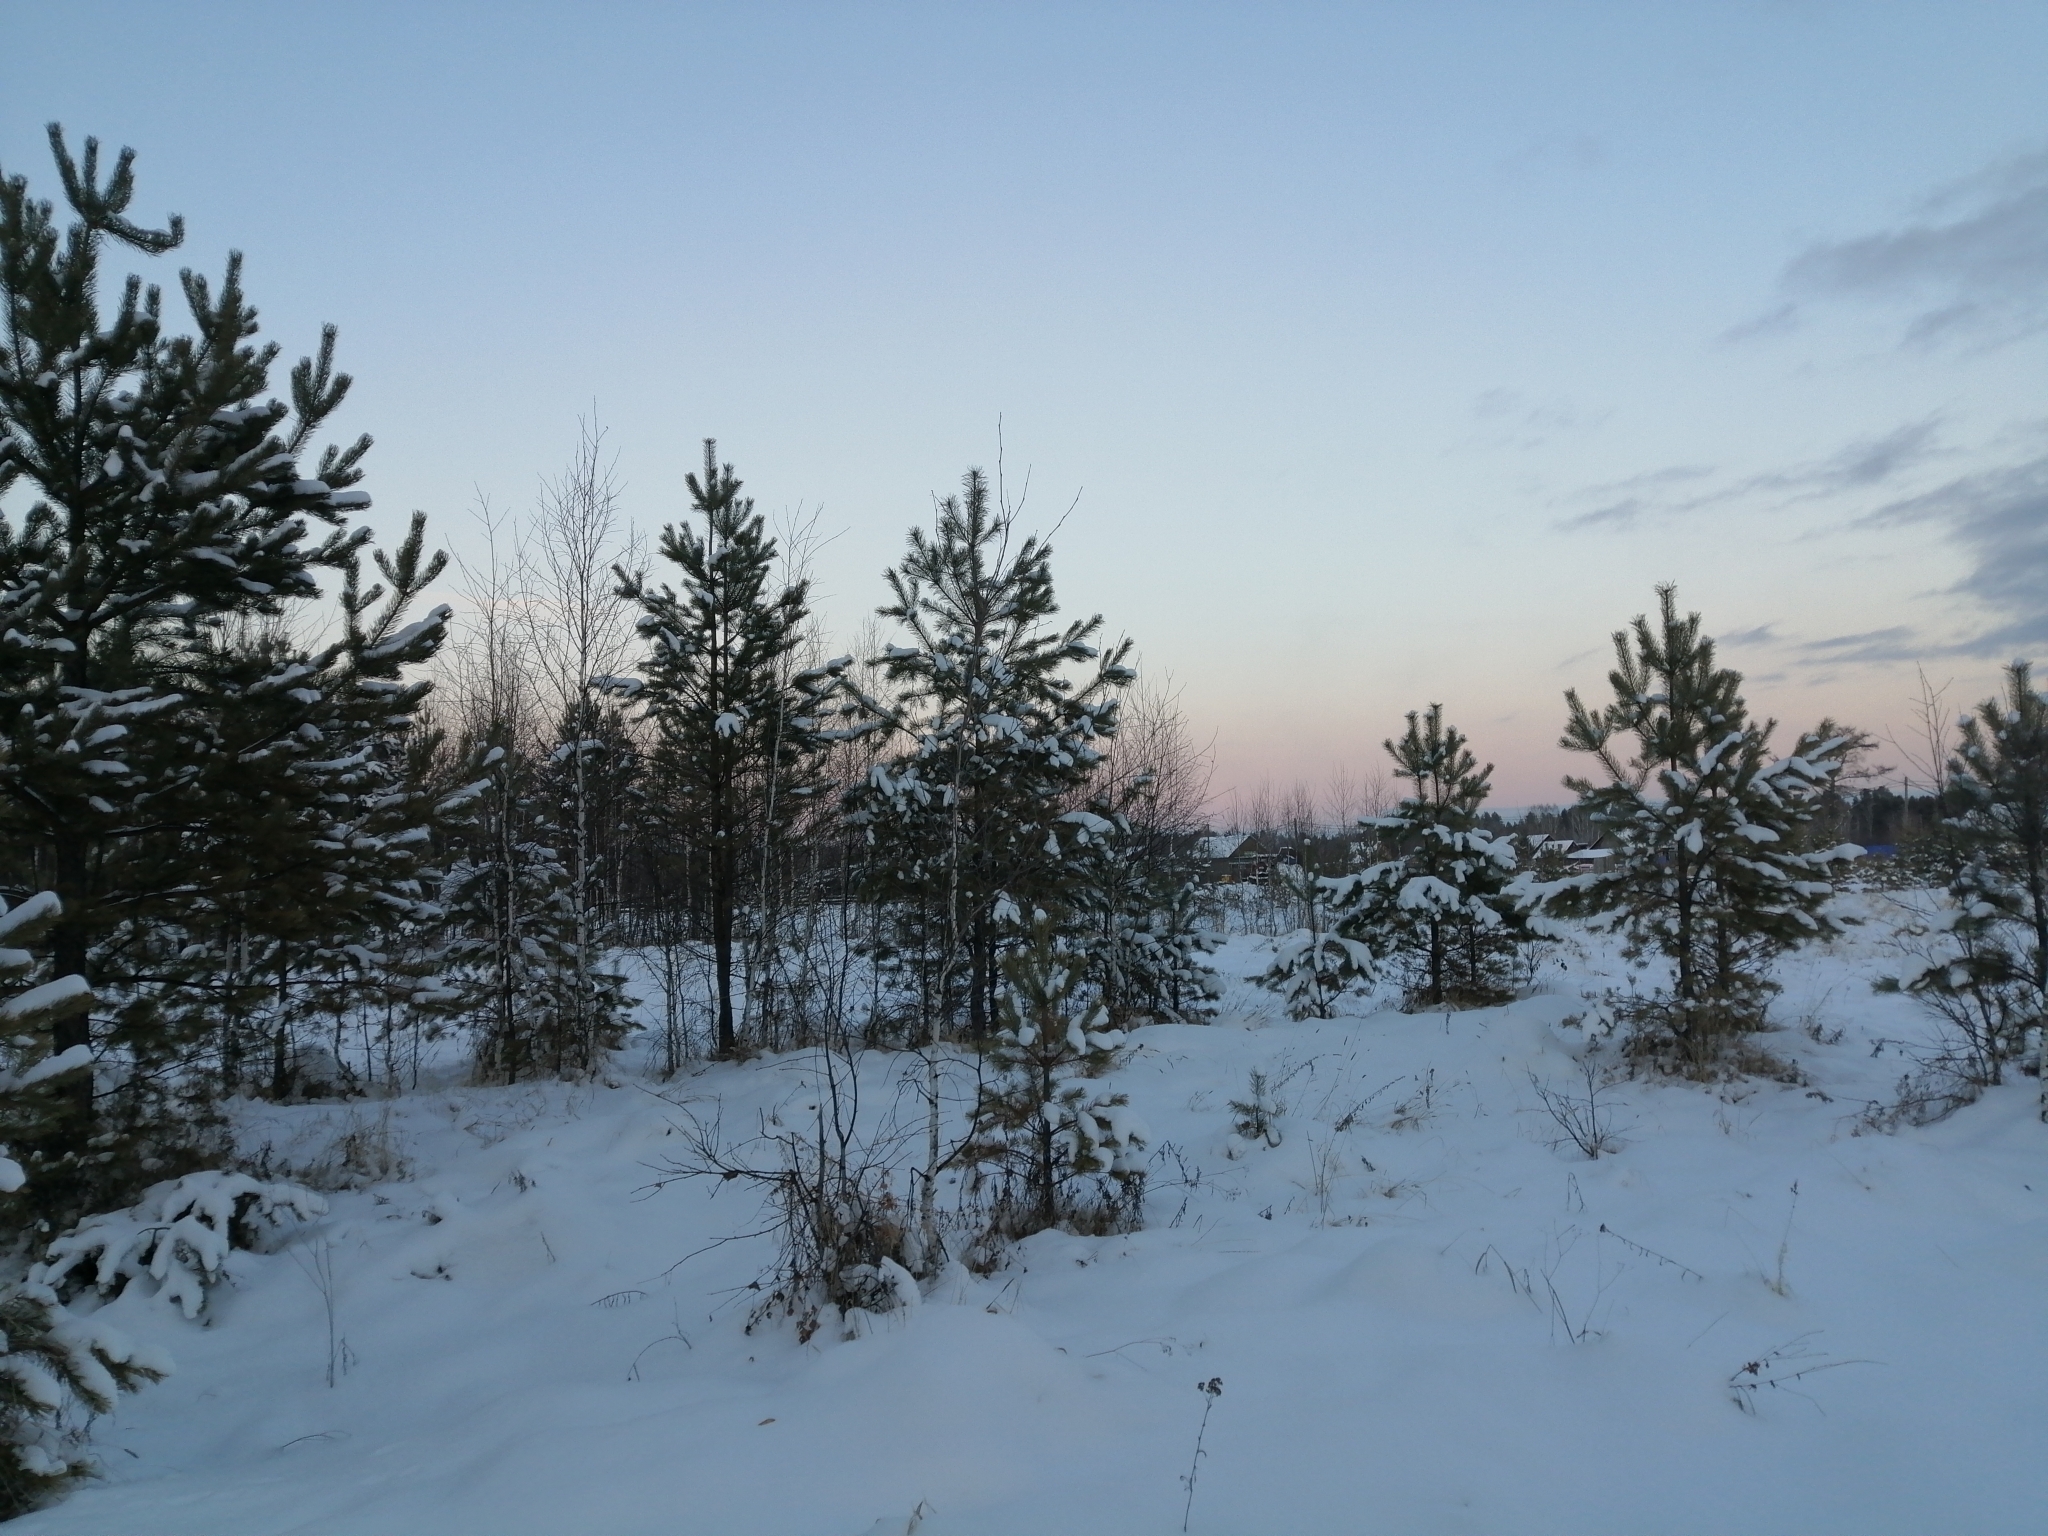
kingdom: Plantae
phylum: Tracheophyta
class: Pinopsida
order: Pinales
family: Pinaceae
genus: Pinus
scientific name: Pinus sylvestris
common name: Scots pine
